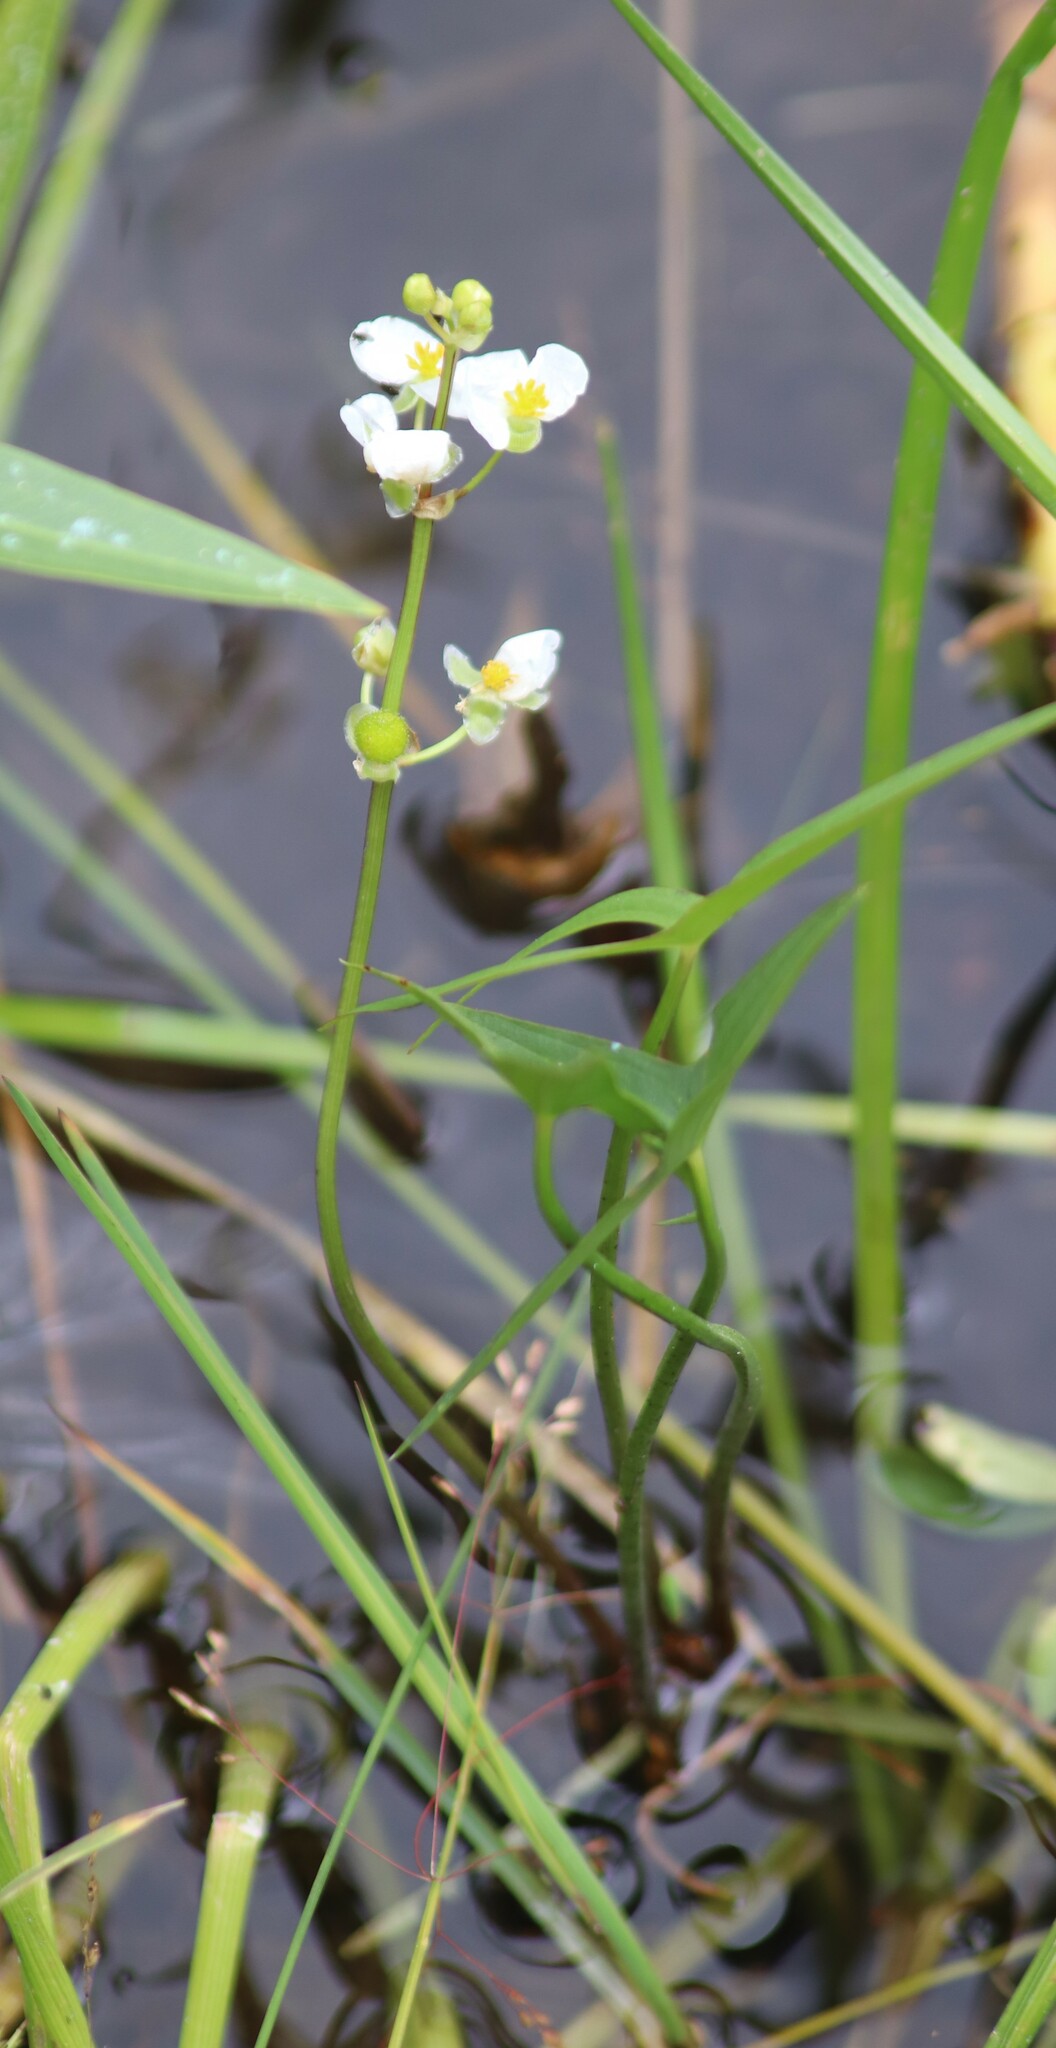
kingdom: Plantae
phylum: Tracheophyta
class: Liliopsida
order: Alismatales
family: Alismataceae
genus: Sagittaria
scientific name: Sagittaria latifolia
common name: Duck-potato
